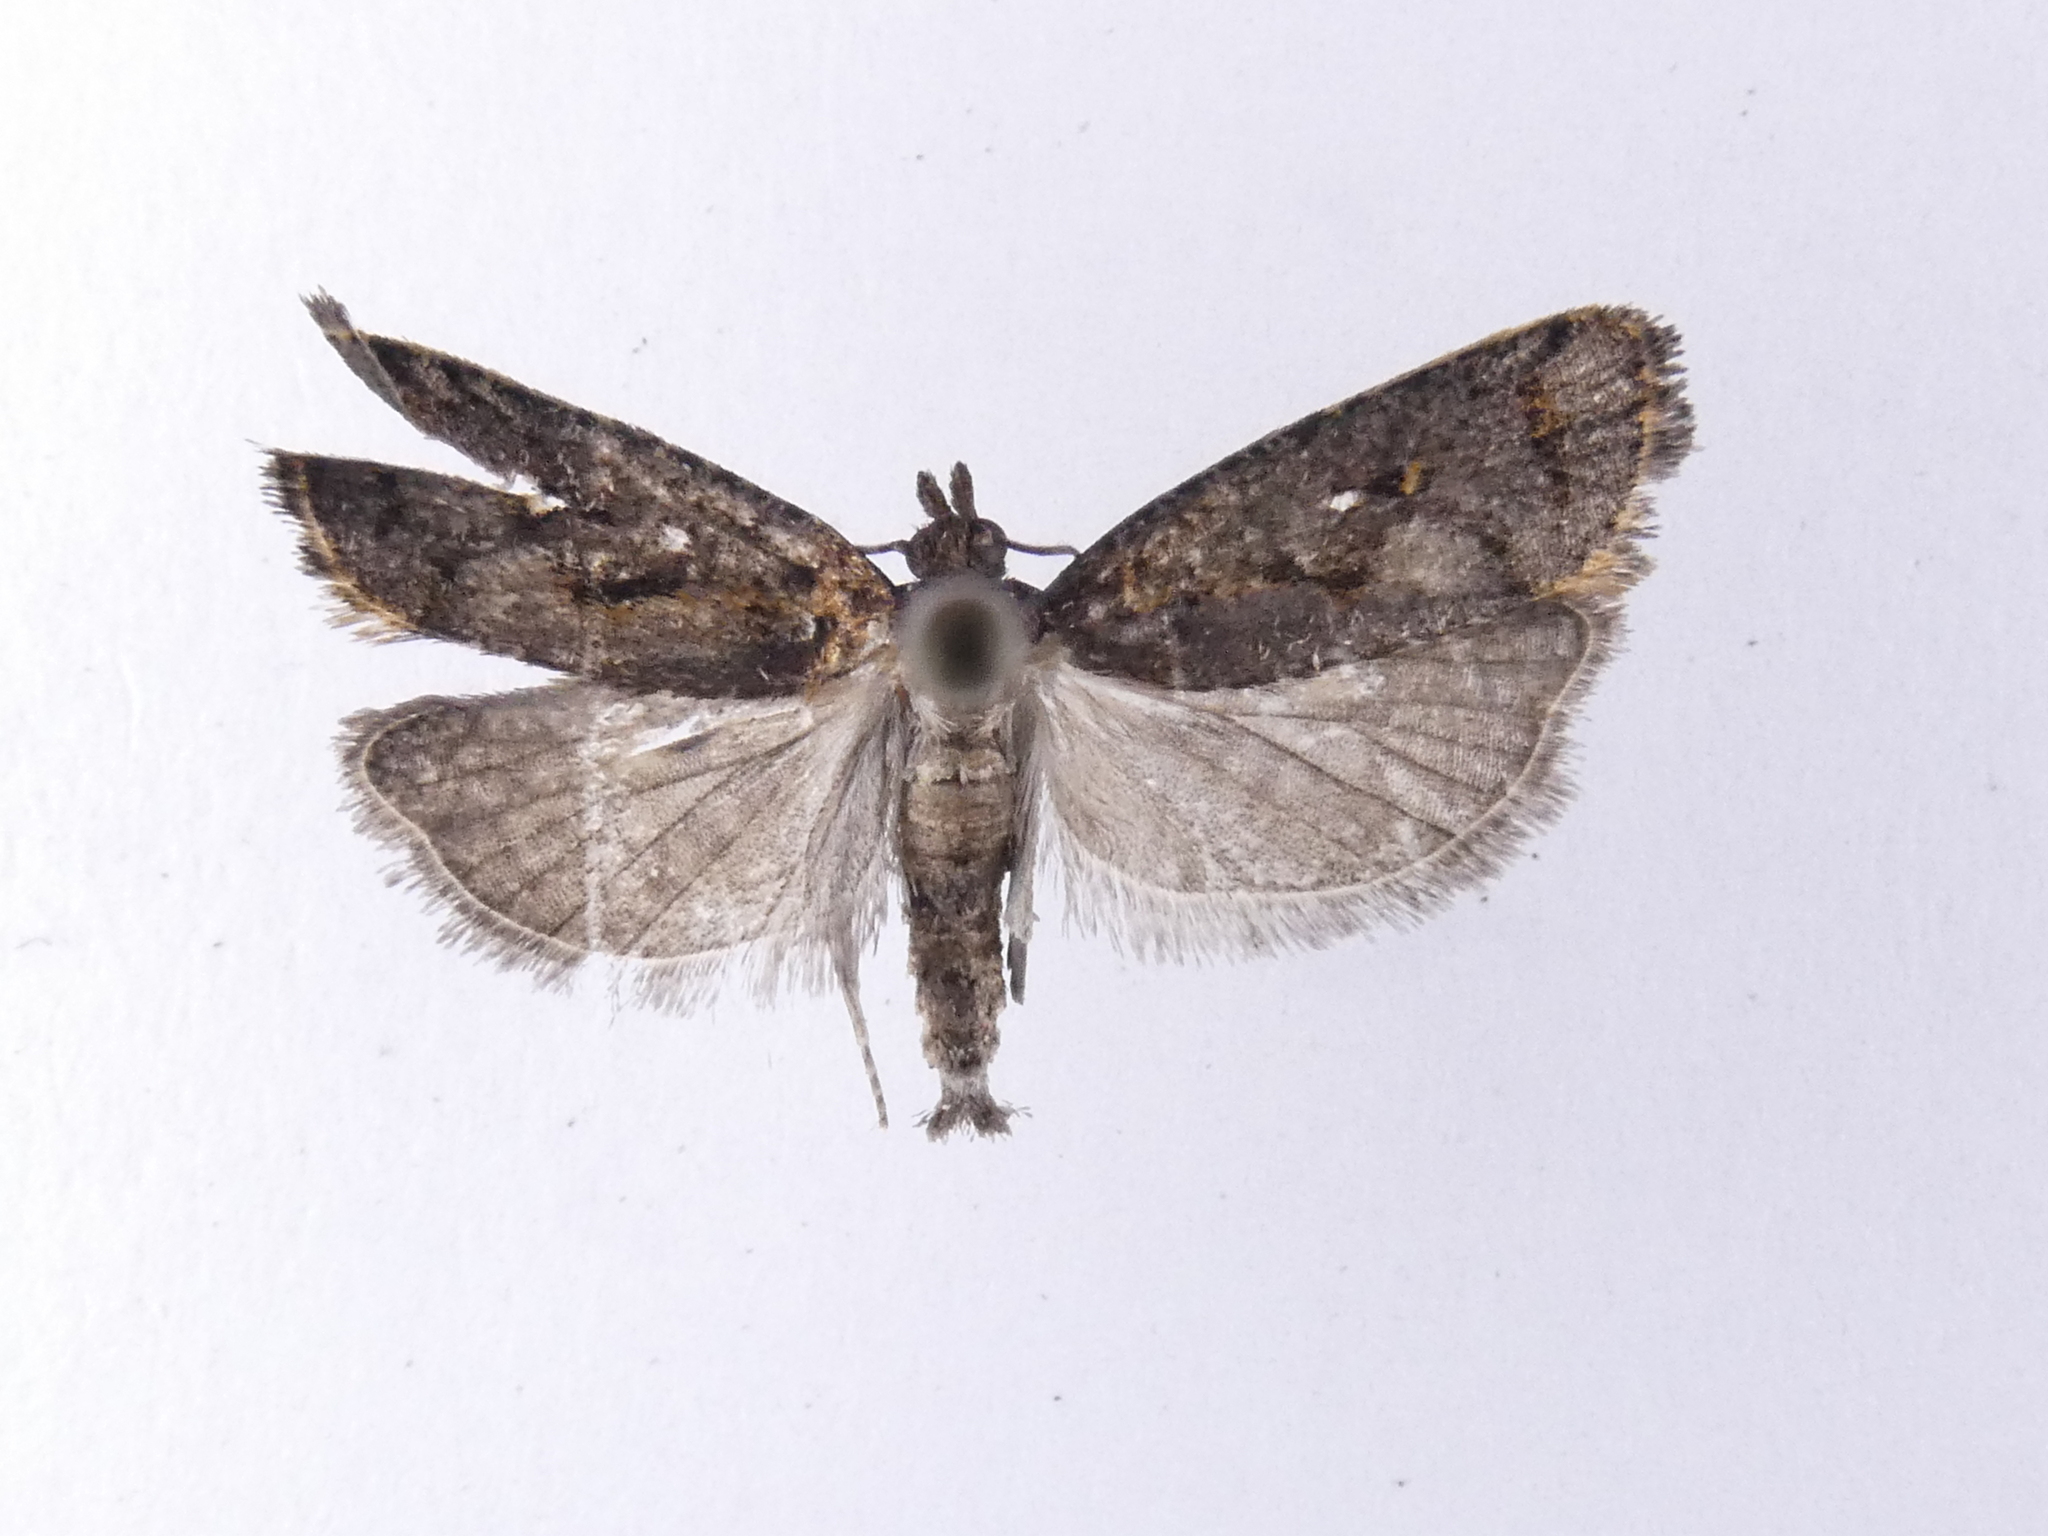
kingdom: Animalia
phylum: Arthropoda
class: Insecta
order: Lepidoptera
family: Tortricidae
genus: Cryptaspasma
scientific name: Cryptaspasma querula
